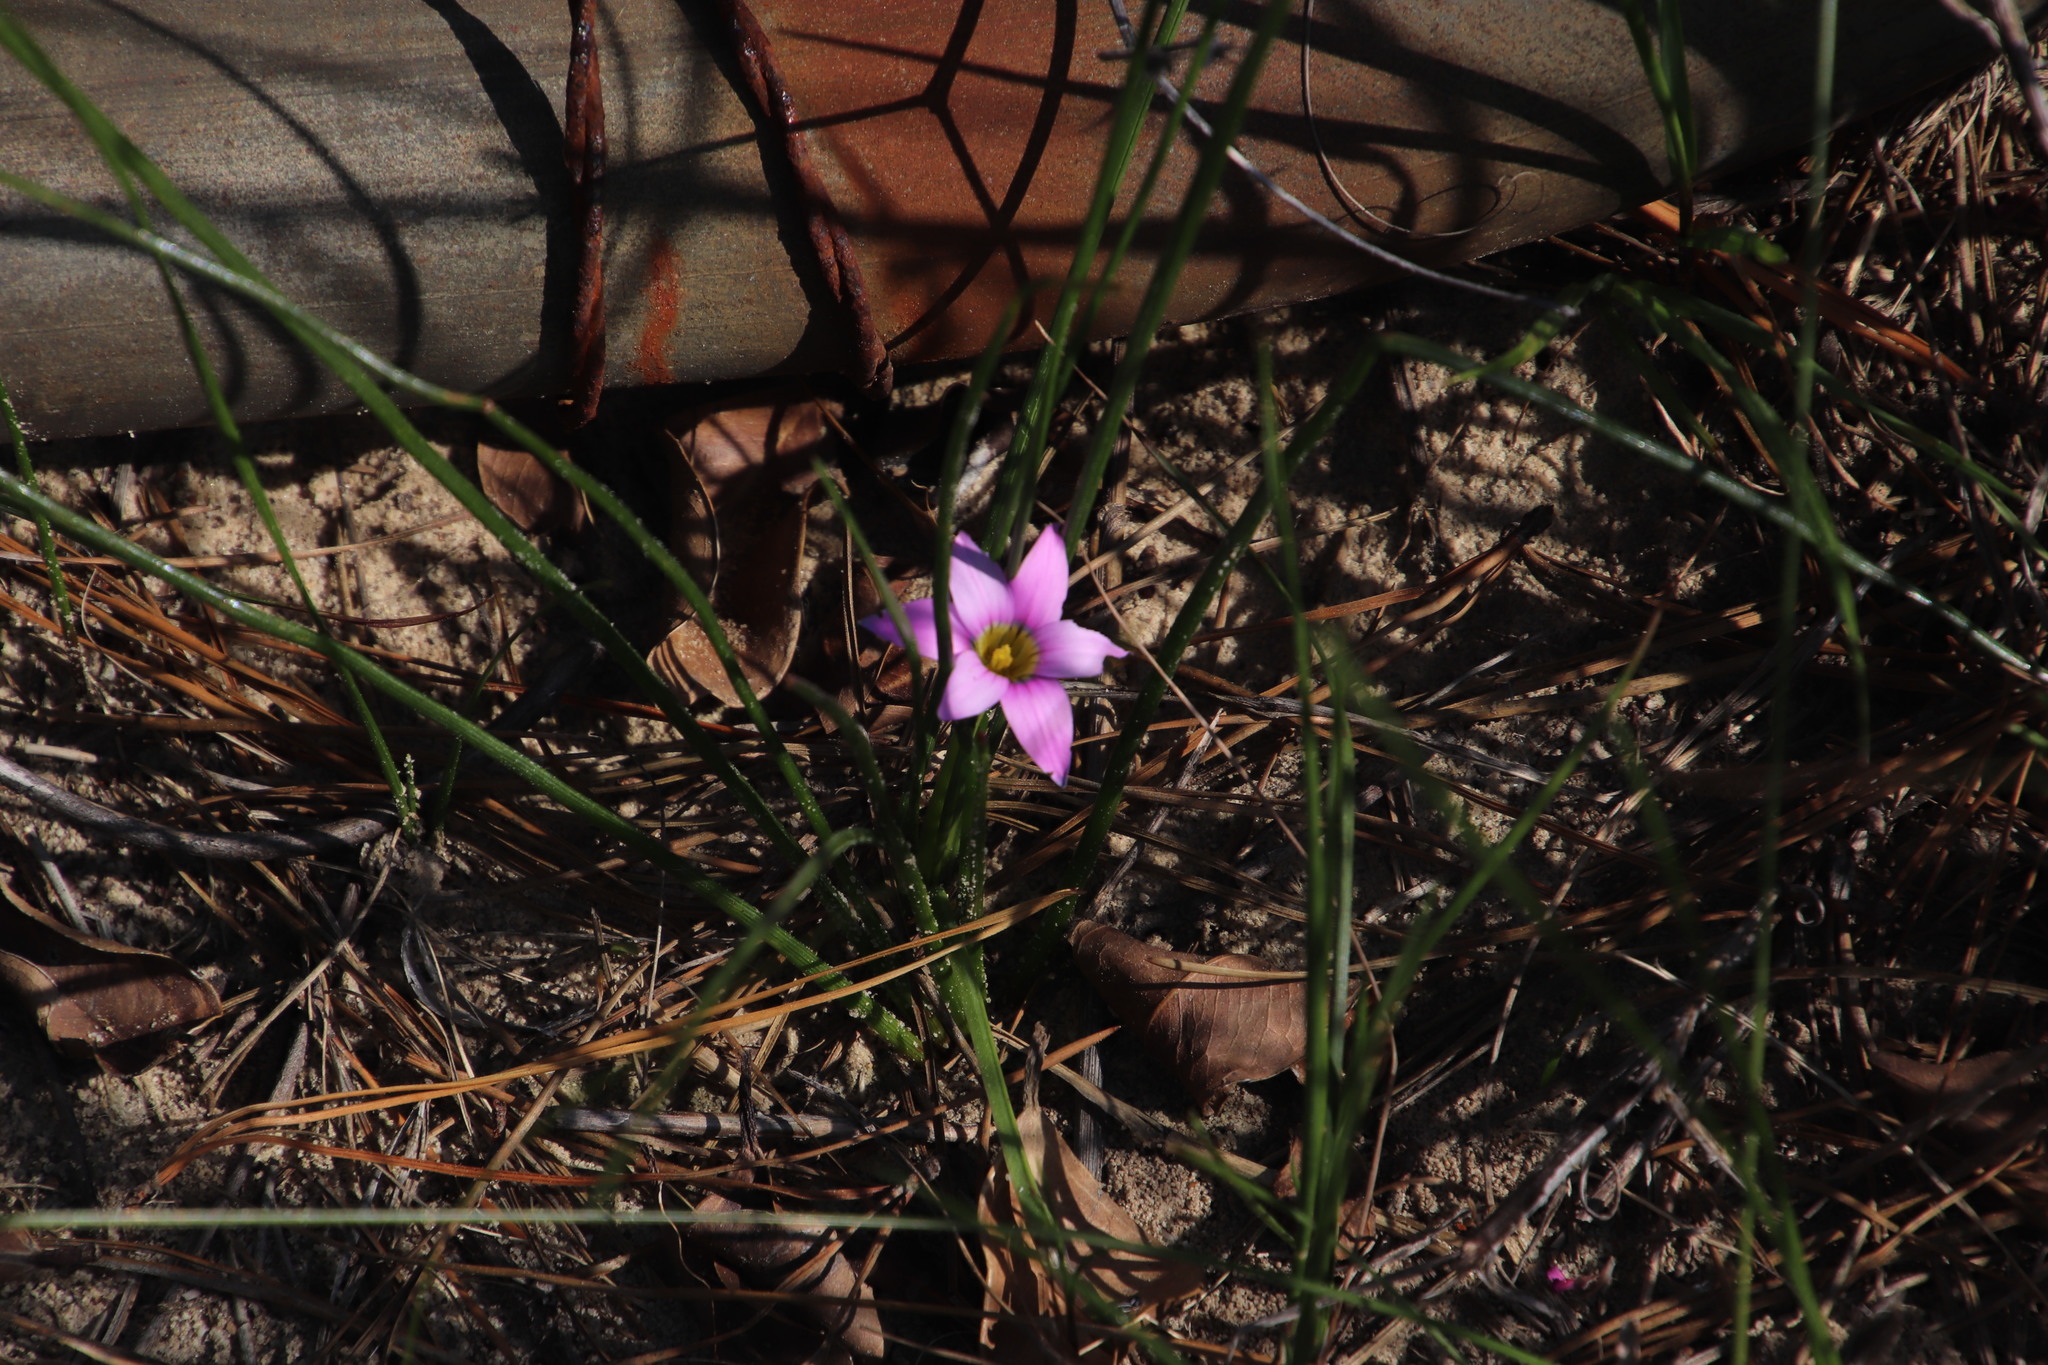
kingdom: Plantae
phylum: Tracheophyta
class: Liliopsida
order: Asparagales
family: Iridaceae
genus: Romulea
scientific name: Romulea rosea
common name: Oniongrass
